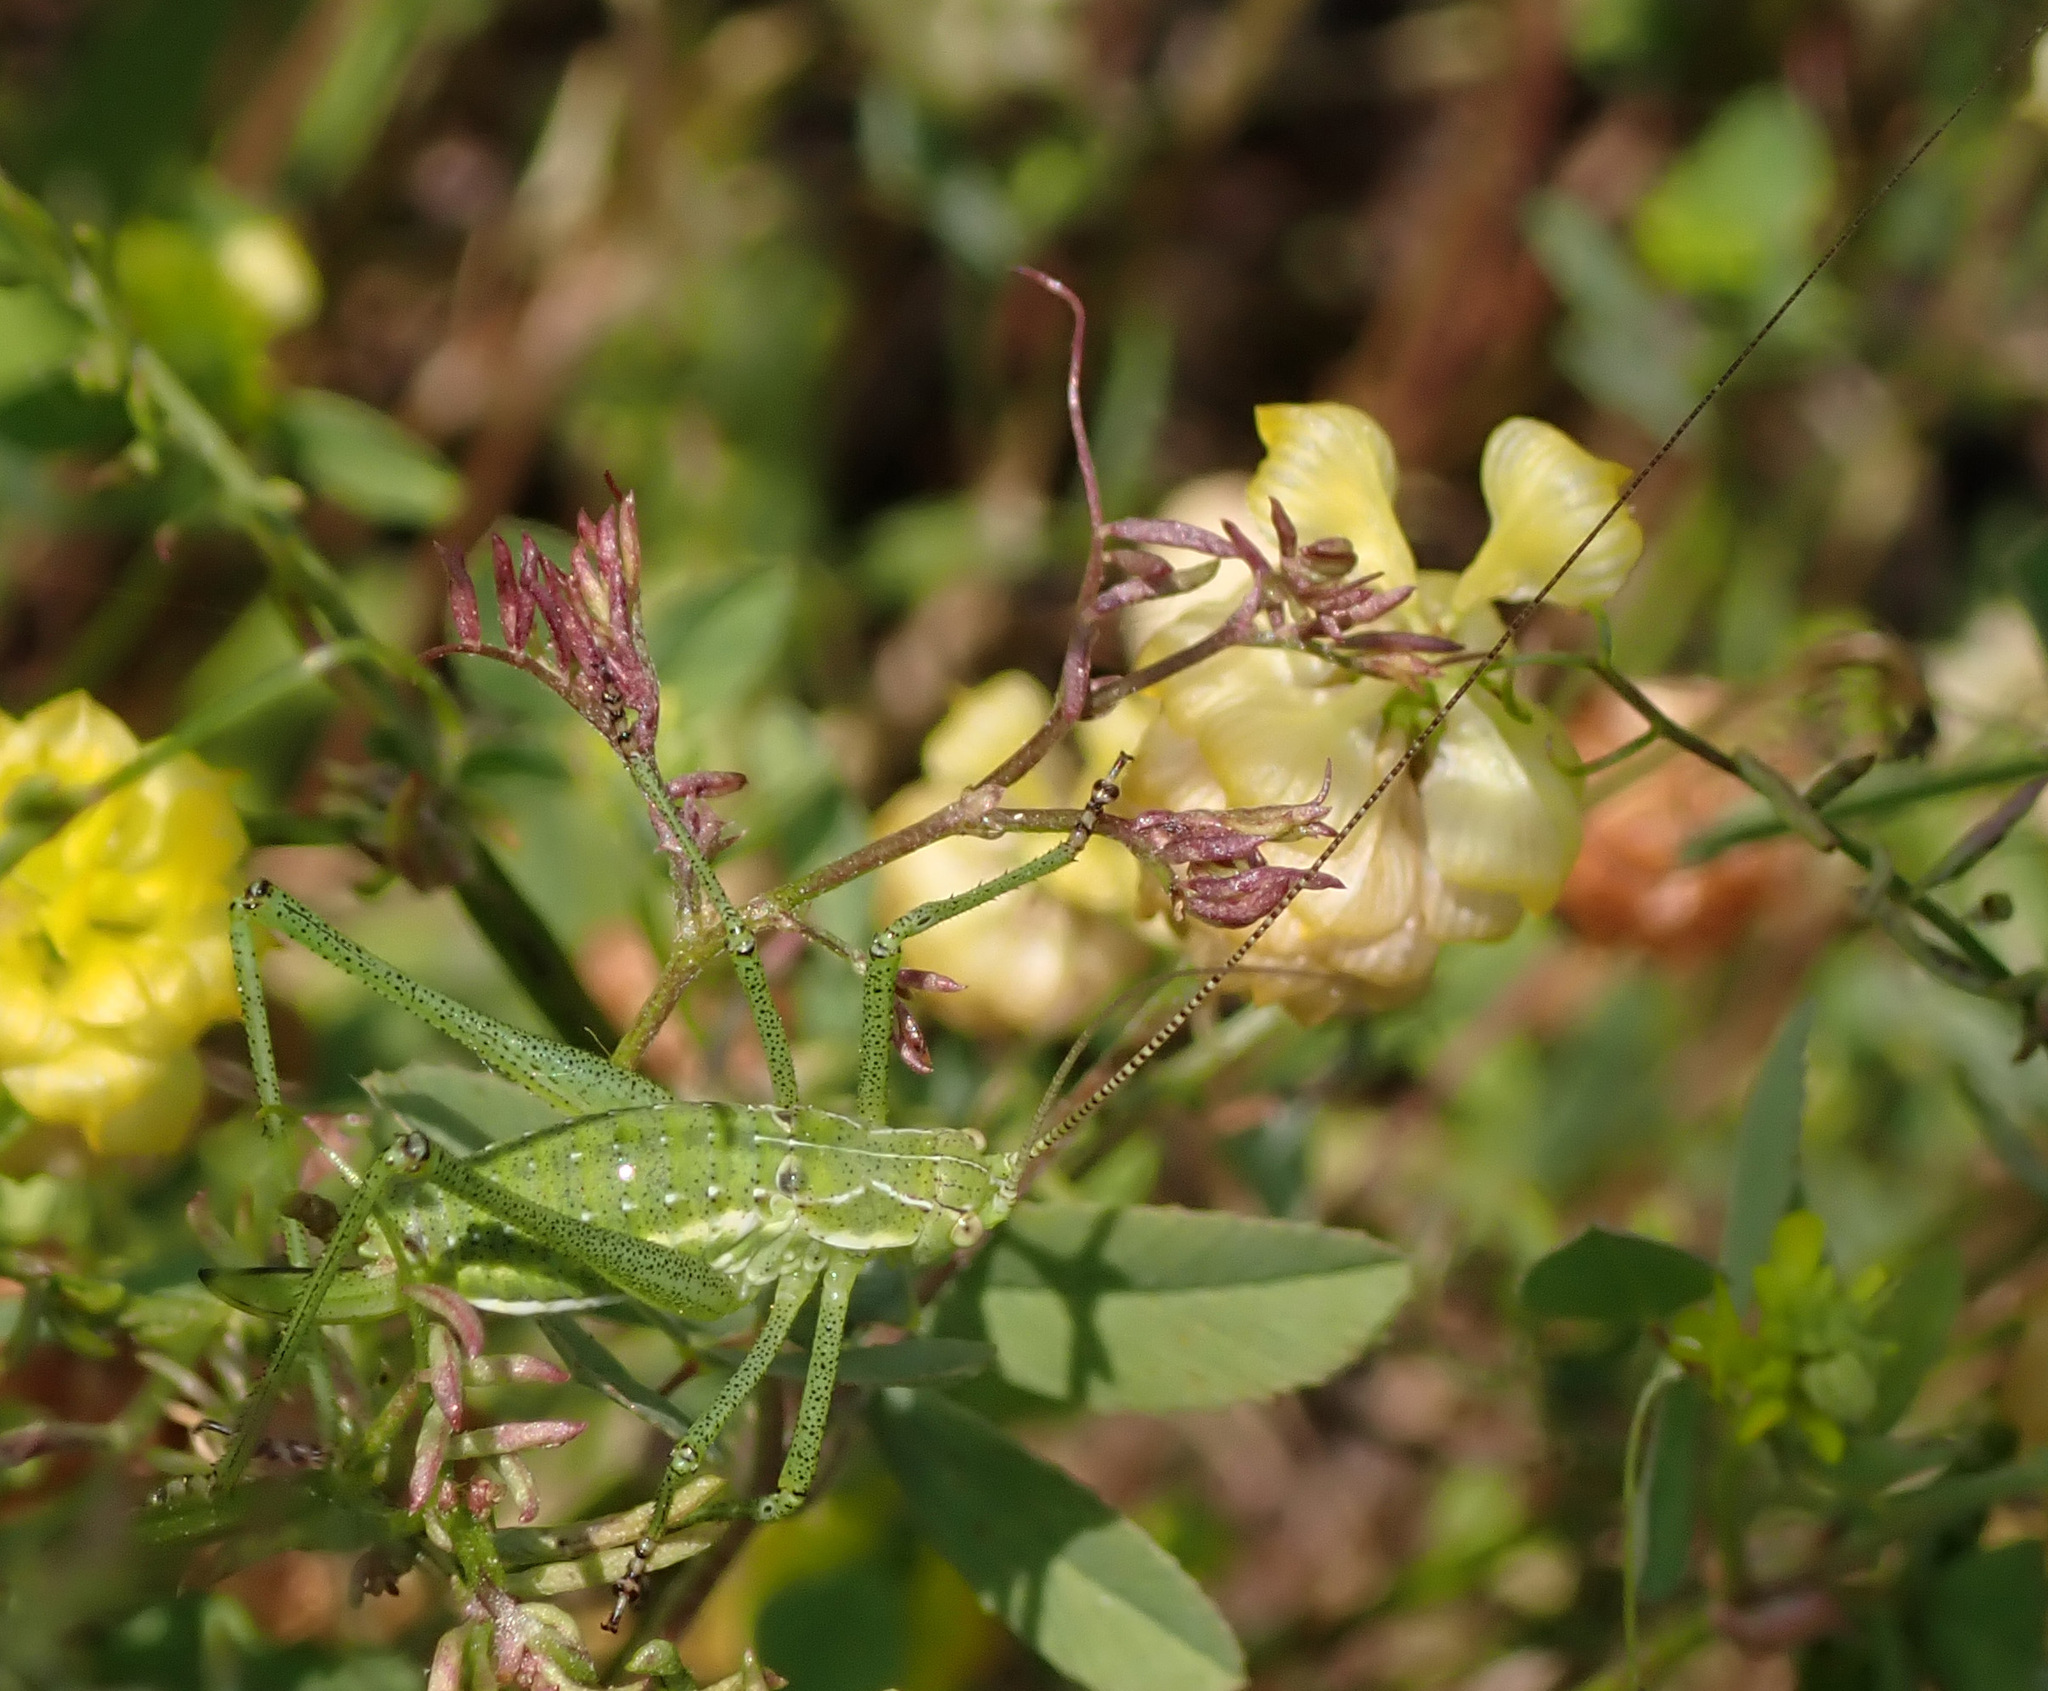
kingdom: Animalia
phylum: Arthropoda
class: Insecta
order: Orthoptera
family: Tettigoniidae
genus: Leptophyes
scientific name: Leptophyes albovittata
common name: Striped bush-cricket
